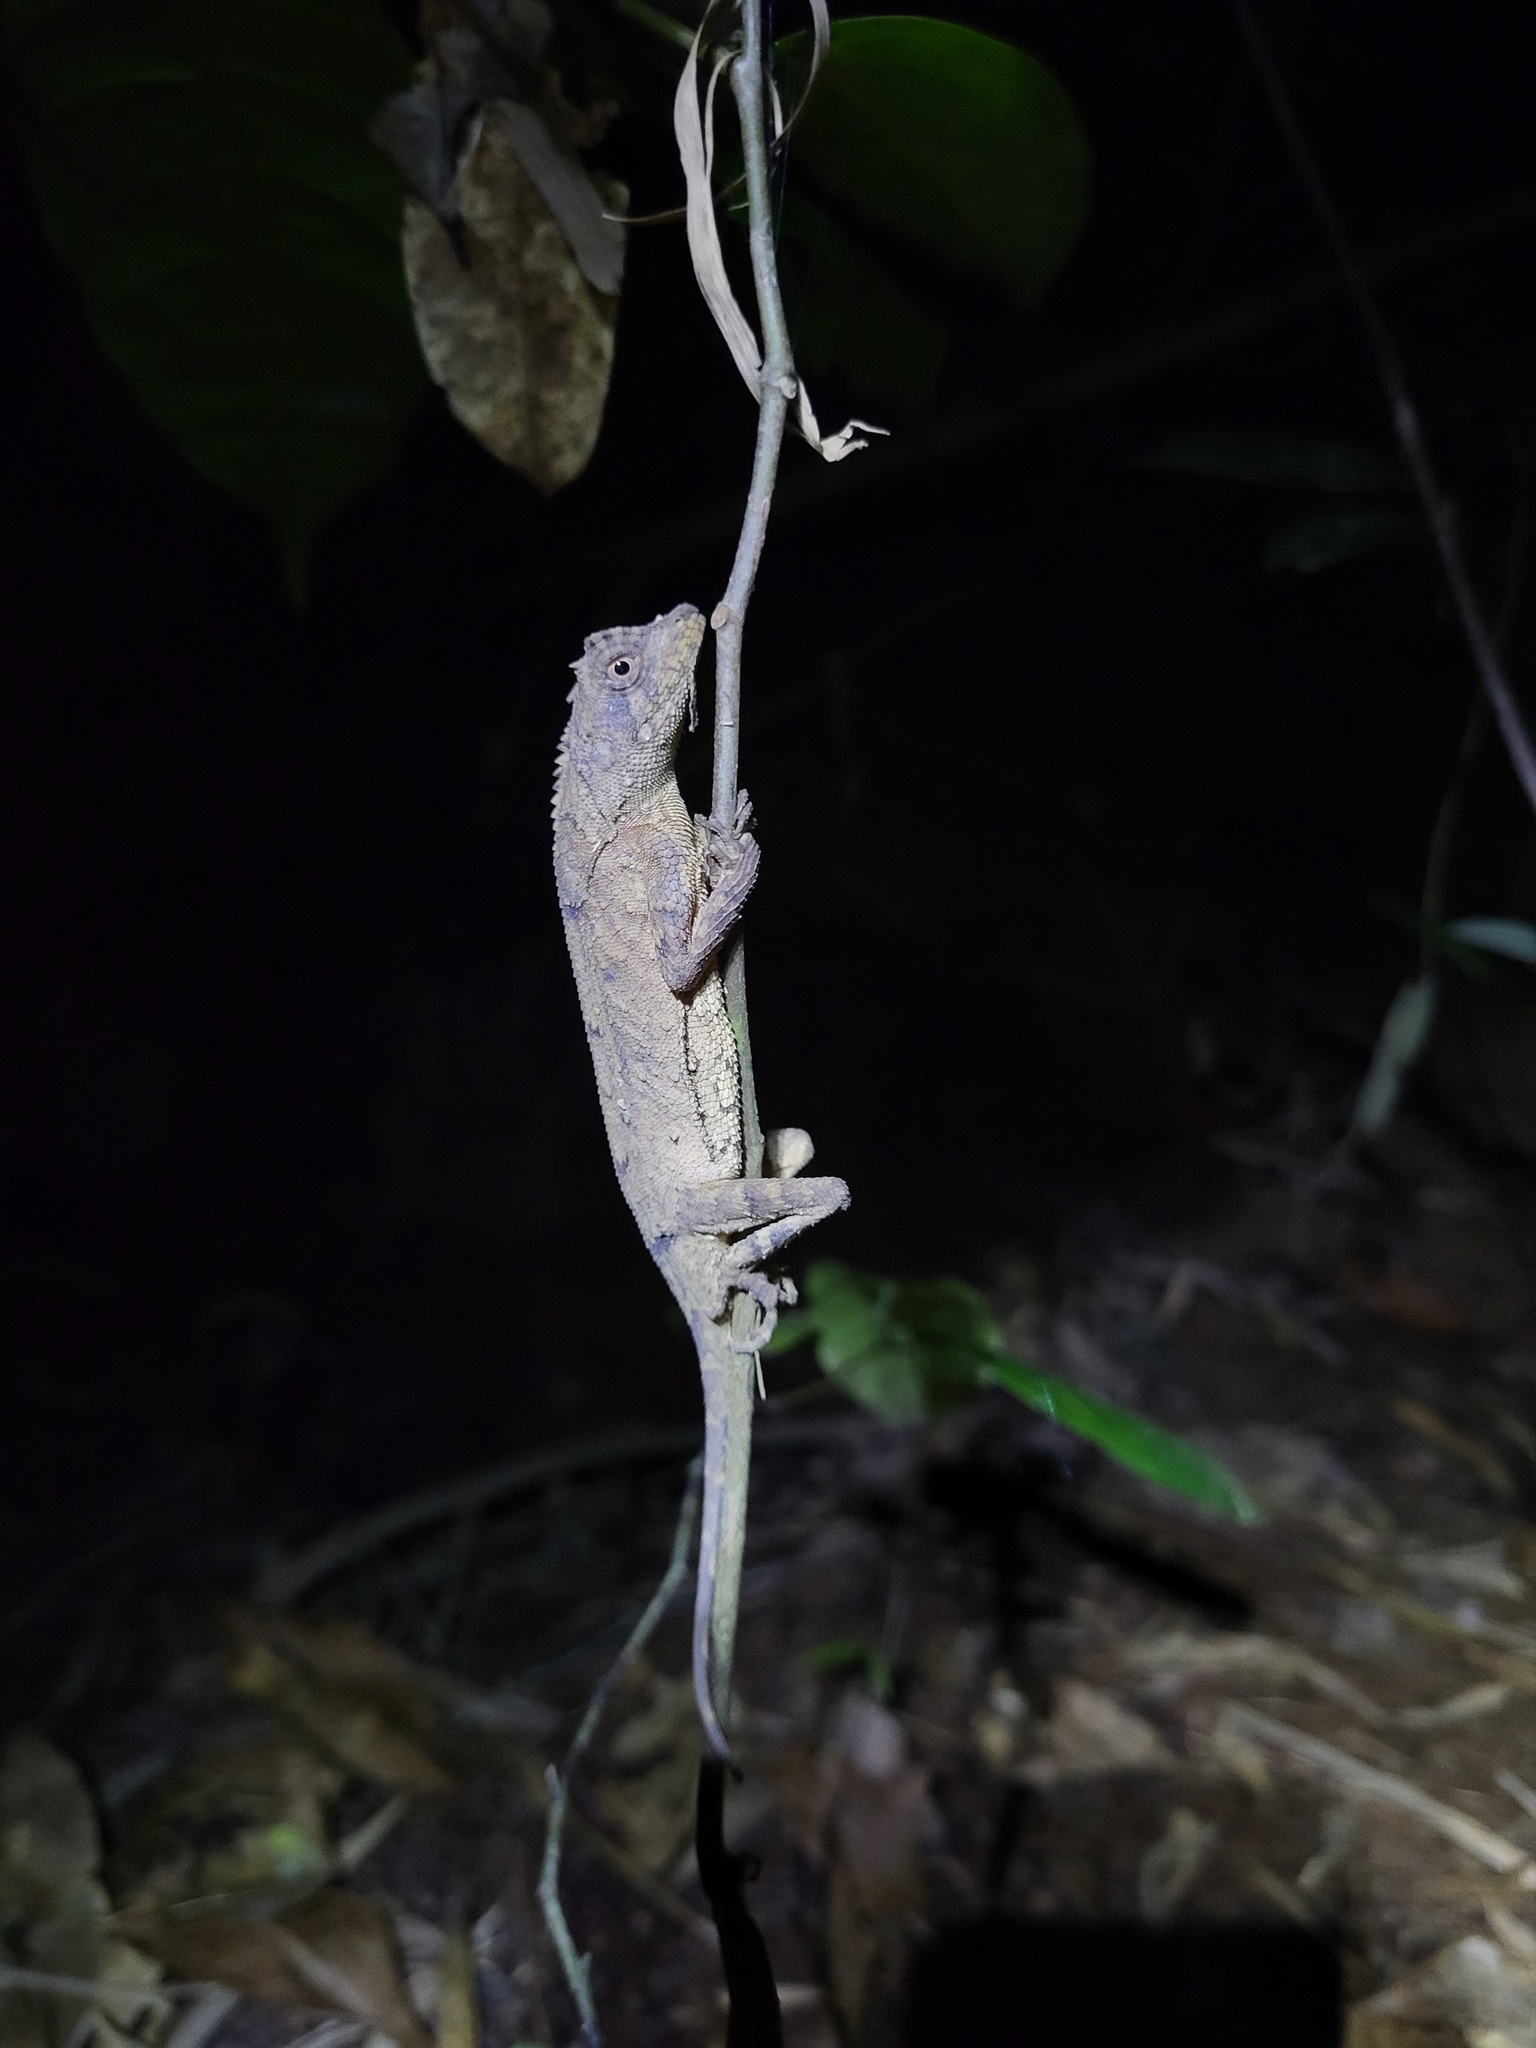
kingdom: Animalia
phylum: Chordata
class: Squamata
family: Agamidae
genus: Acanthosaura
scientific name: Acanthosaura coronata
